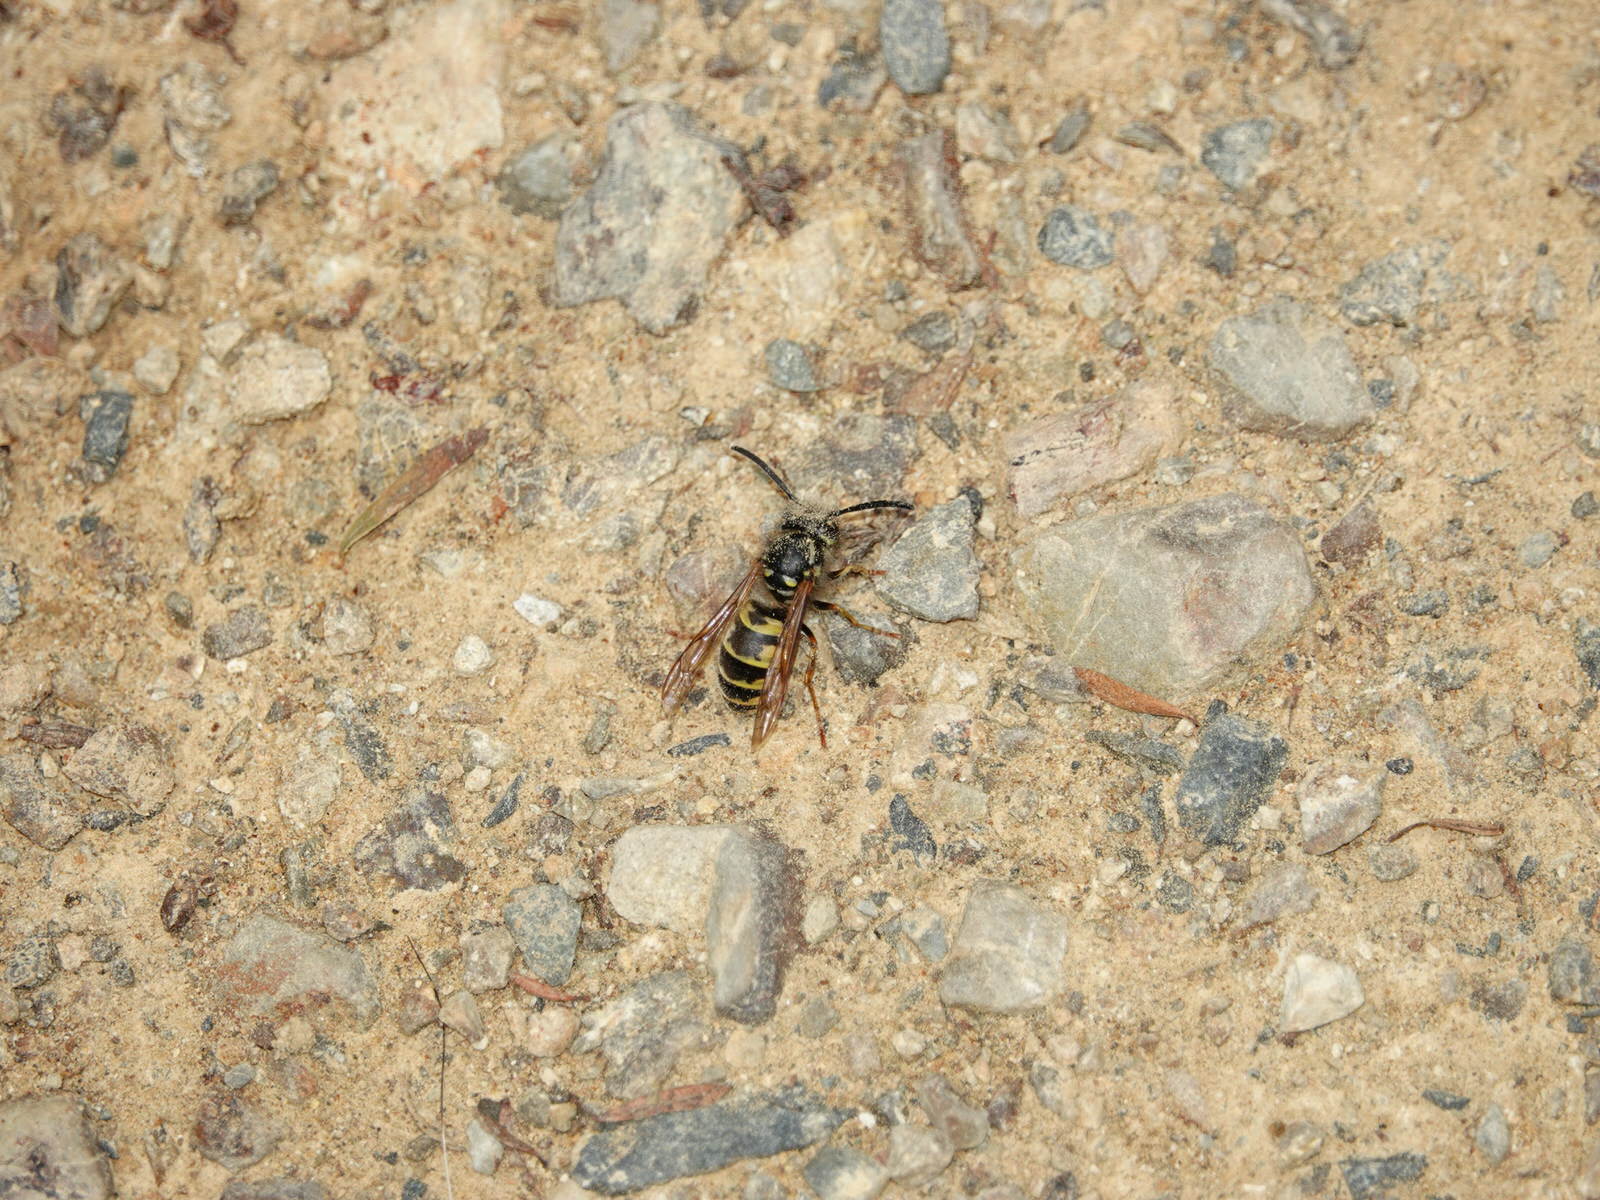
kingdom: Animalia
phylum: Arthropoda
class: Insecta
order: Hymenoptera
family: Vespidae
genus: Vespula
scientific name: Vespula vulgaris
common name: Common wasp
